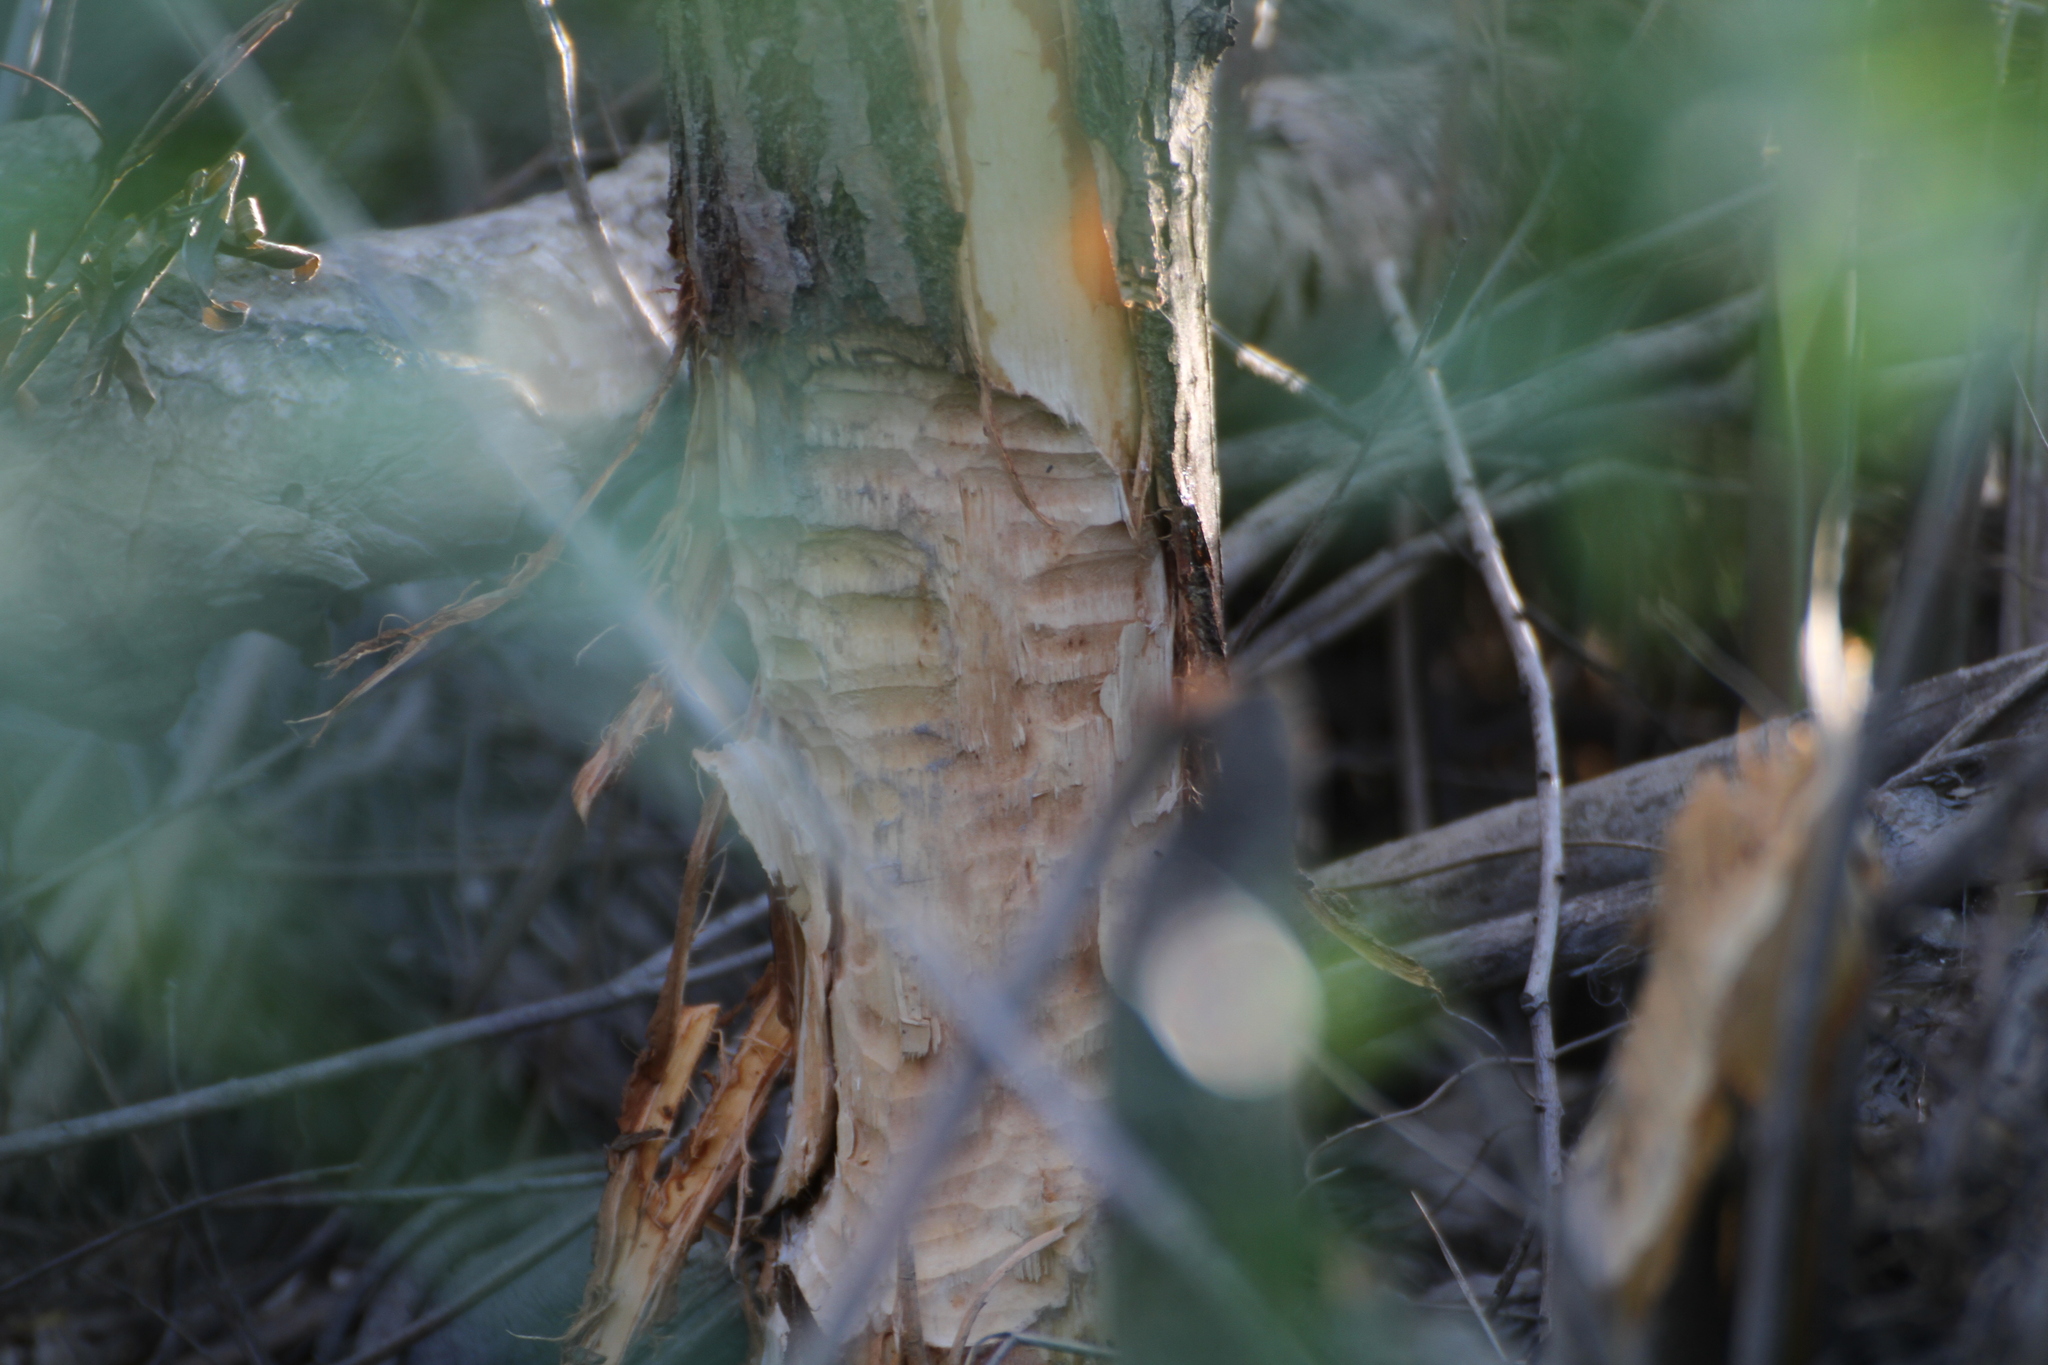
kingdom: Animalia
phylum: Chordata
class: Mammalia
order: Rodentia
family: Castoridae
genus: Castor
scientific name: Castor fiber
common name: Eurasian beaver
